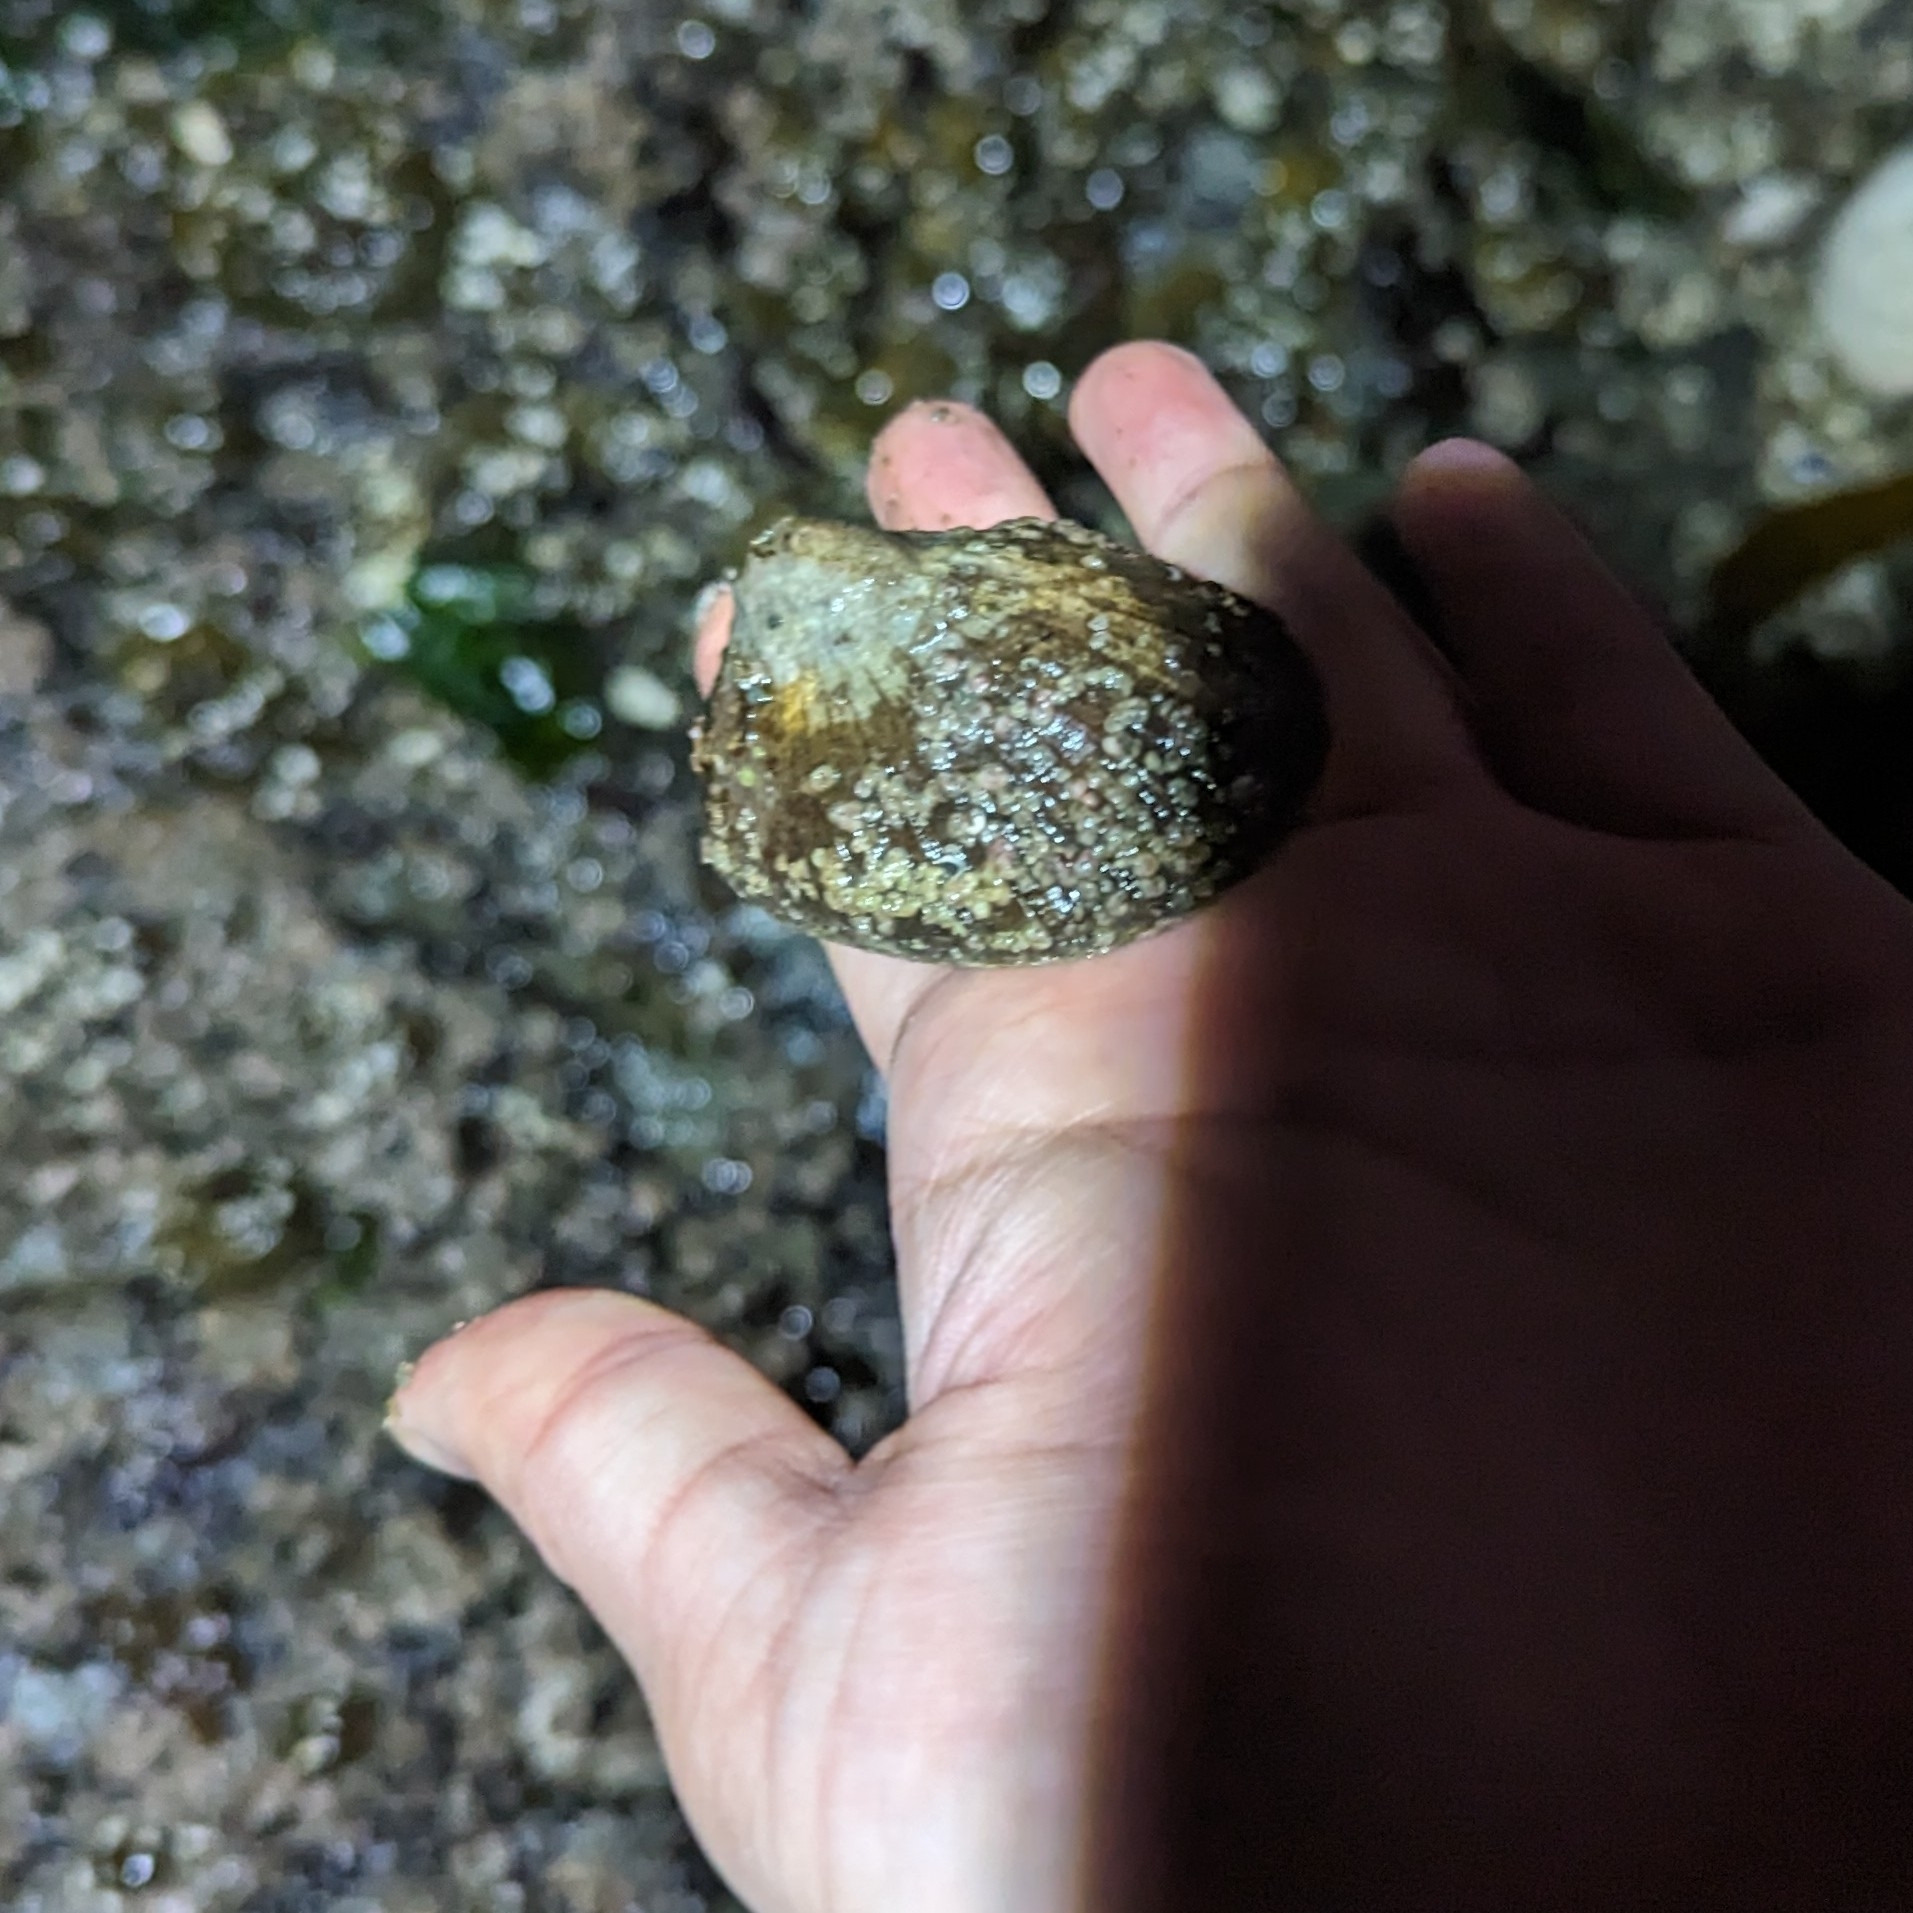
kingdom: Animalia
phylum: Mollusca
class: Gastropoda
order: Lepetellida
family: Fissurellidae
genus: Diodora
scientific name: Diodora aspera
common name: Rough keyhole limpet
